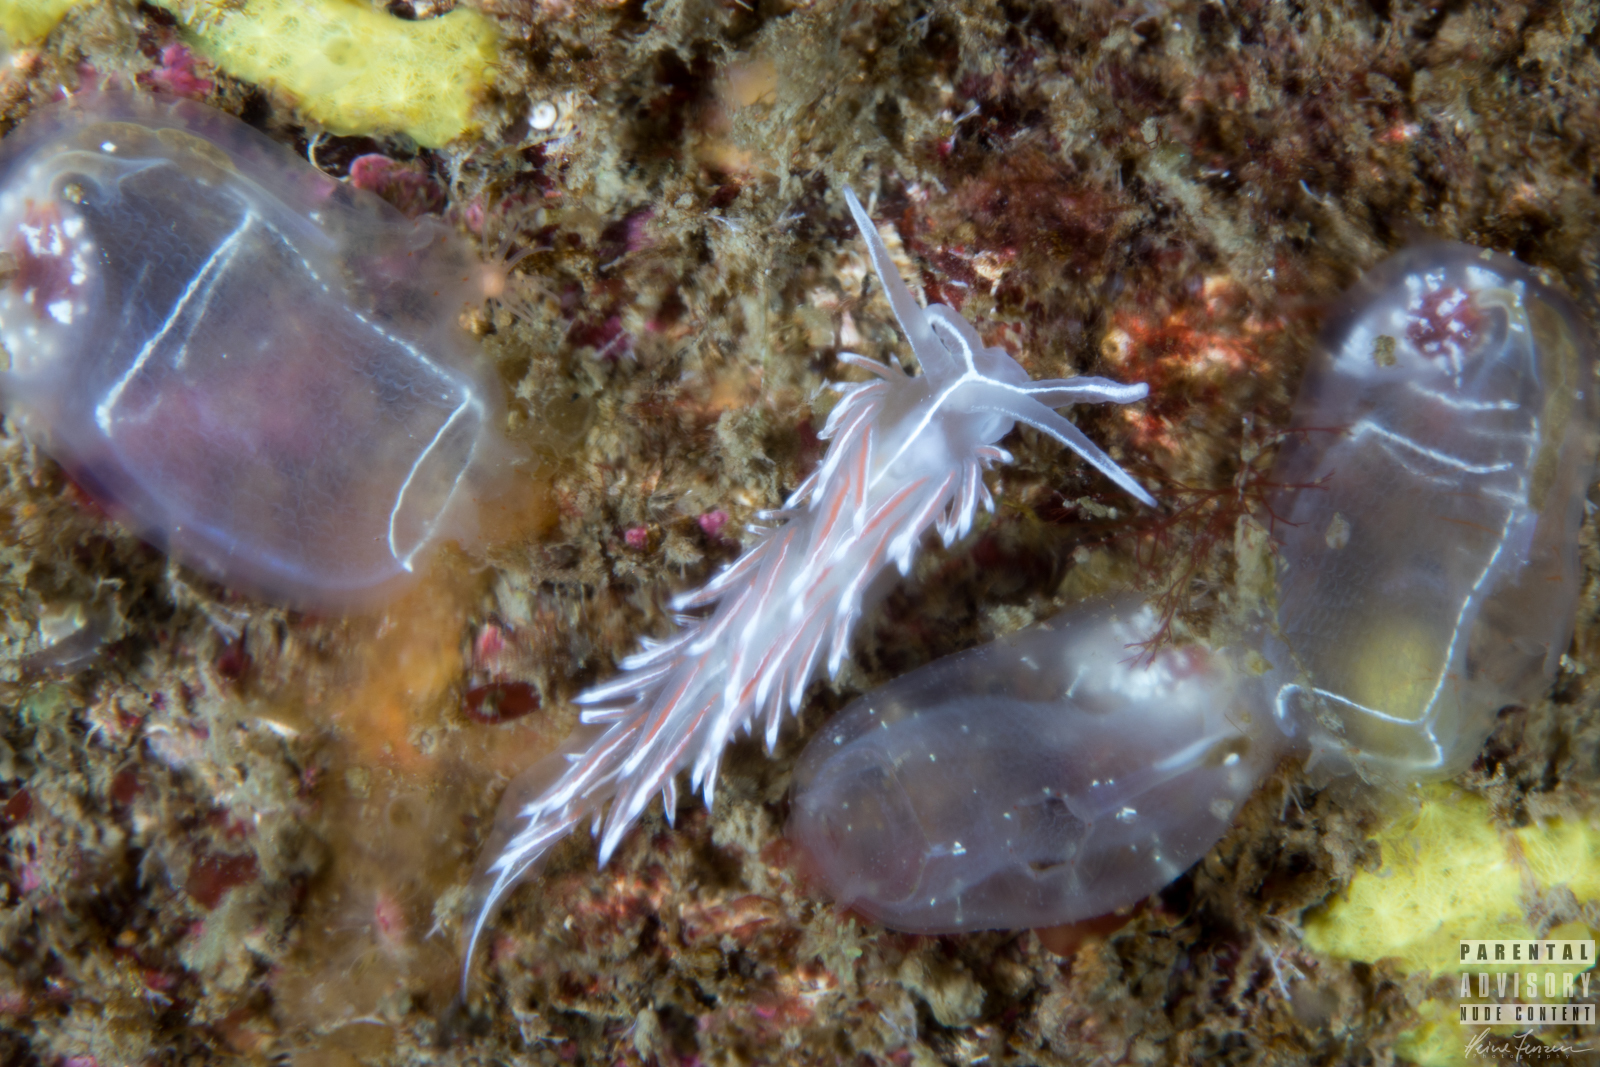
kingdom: Animalia
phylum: Mollusca
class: Gastropoda
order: Nudibranchia
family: Coryphellidae
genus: Coryphella
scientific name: Coryphella lineata
